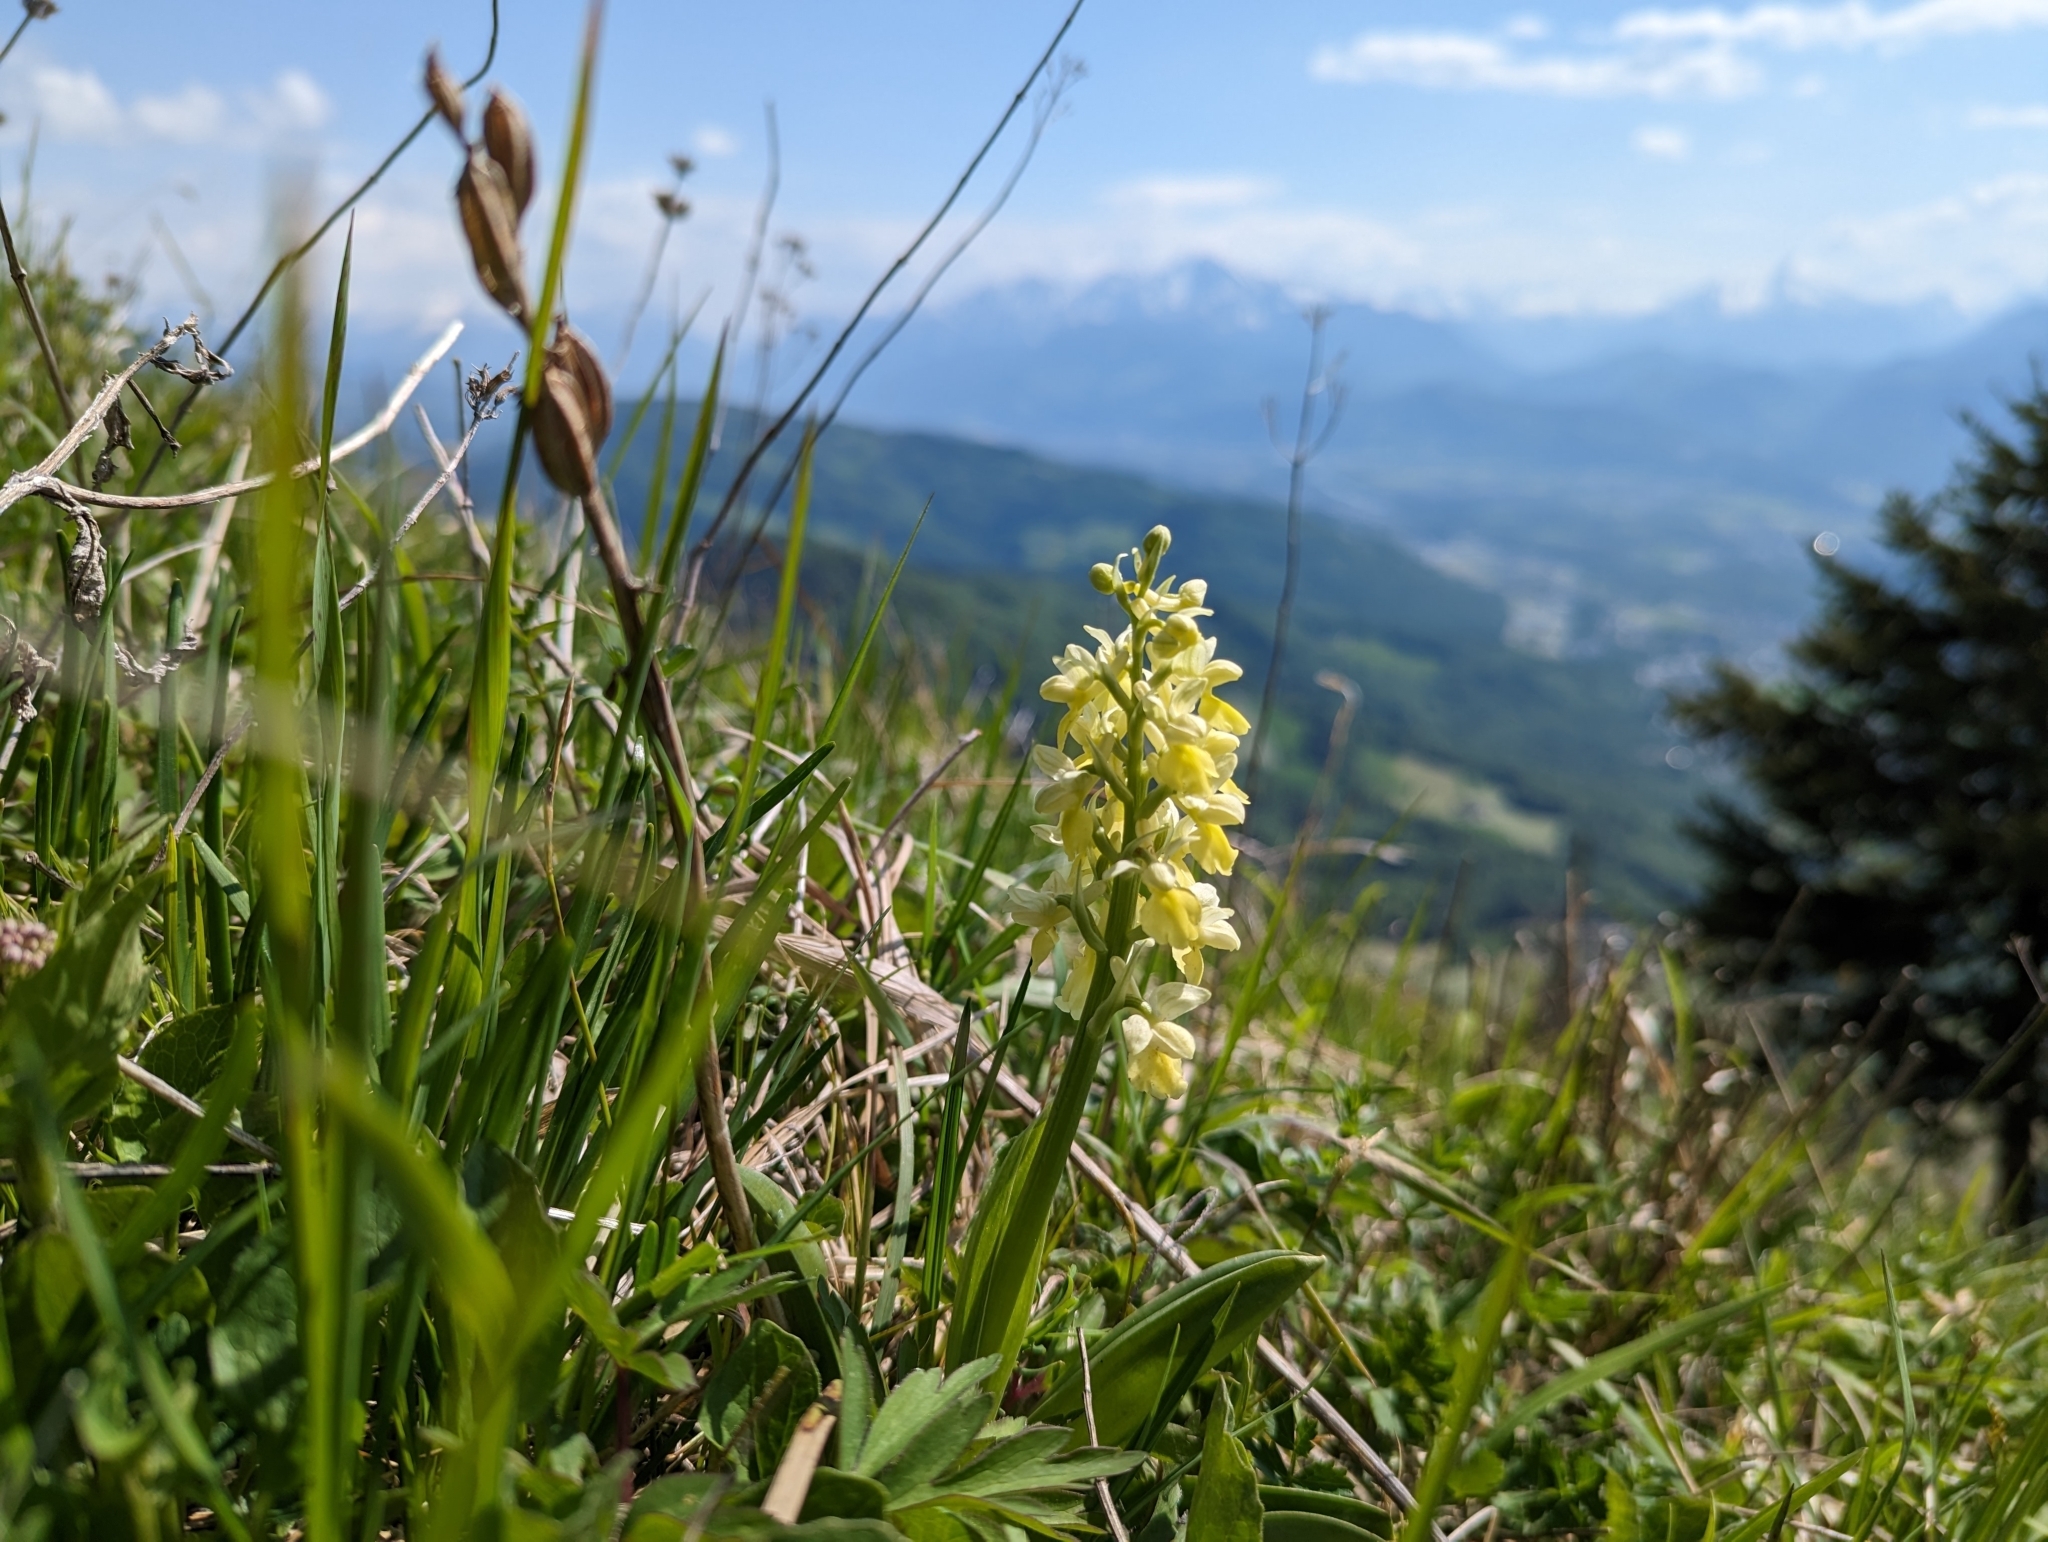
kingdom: Plantae
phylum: Tracheophyta
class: Liliopsida
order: Asparagales
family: Orchidaceae
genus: Orchis
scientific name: Orchis pallens
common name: Pale-flowered orchid
